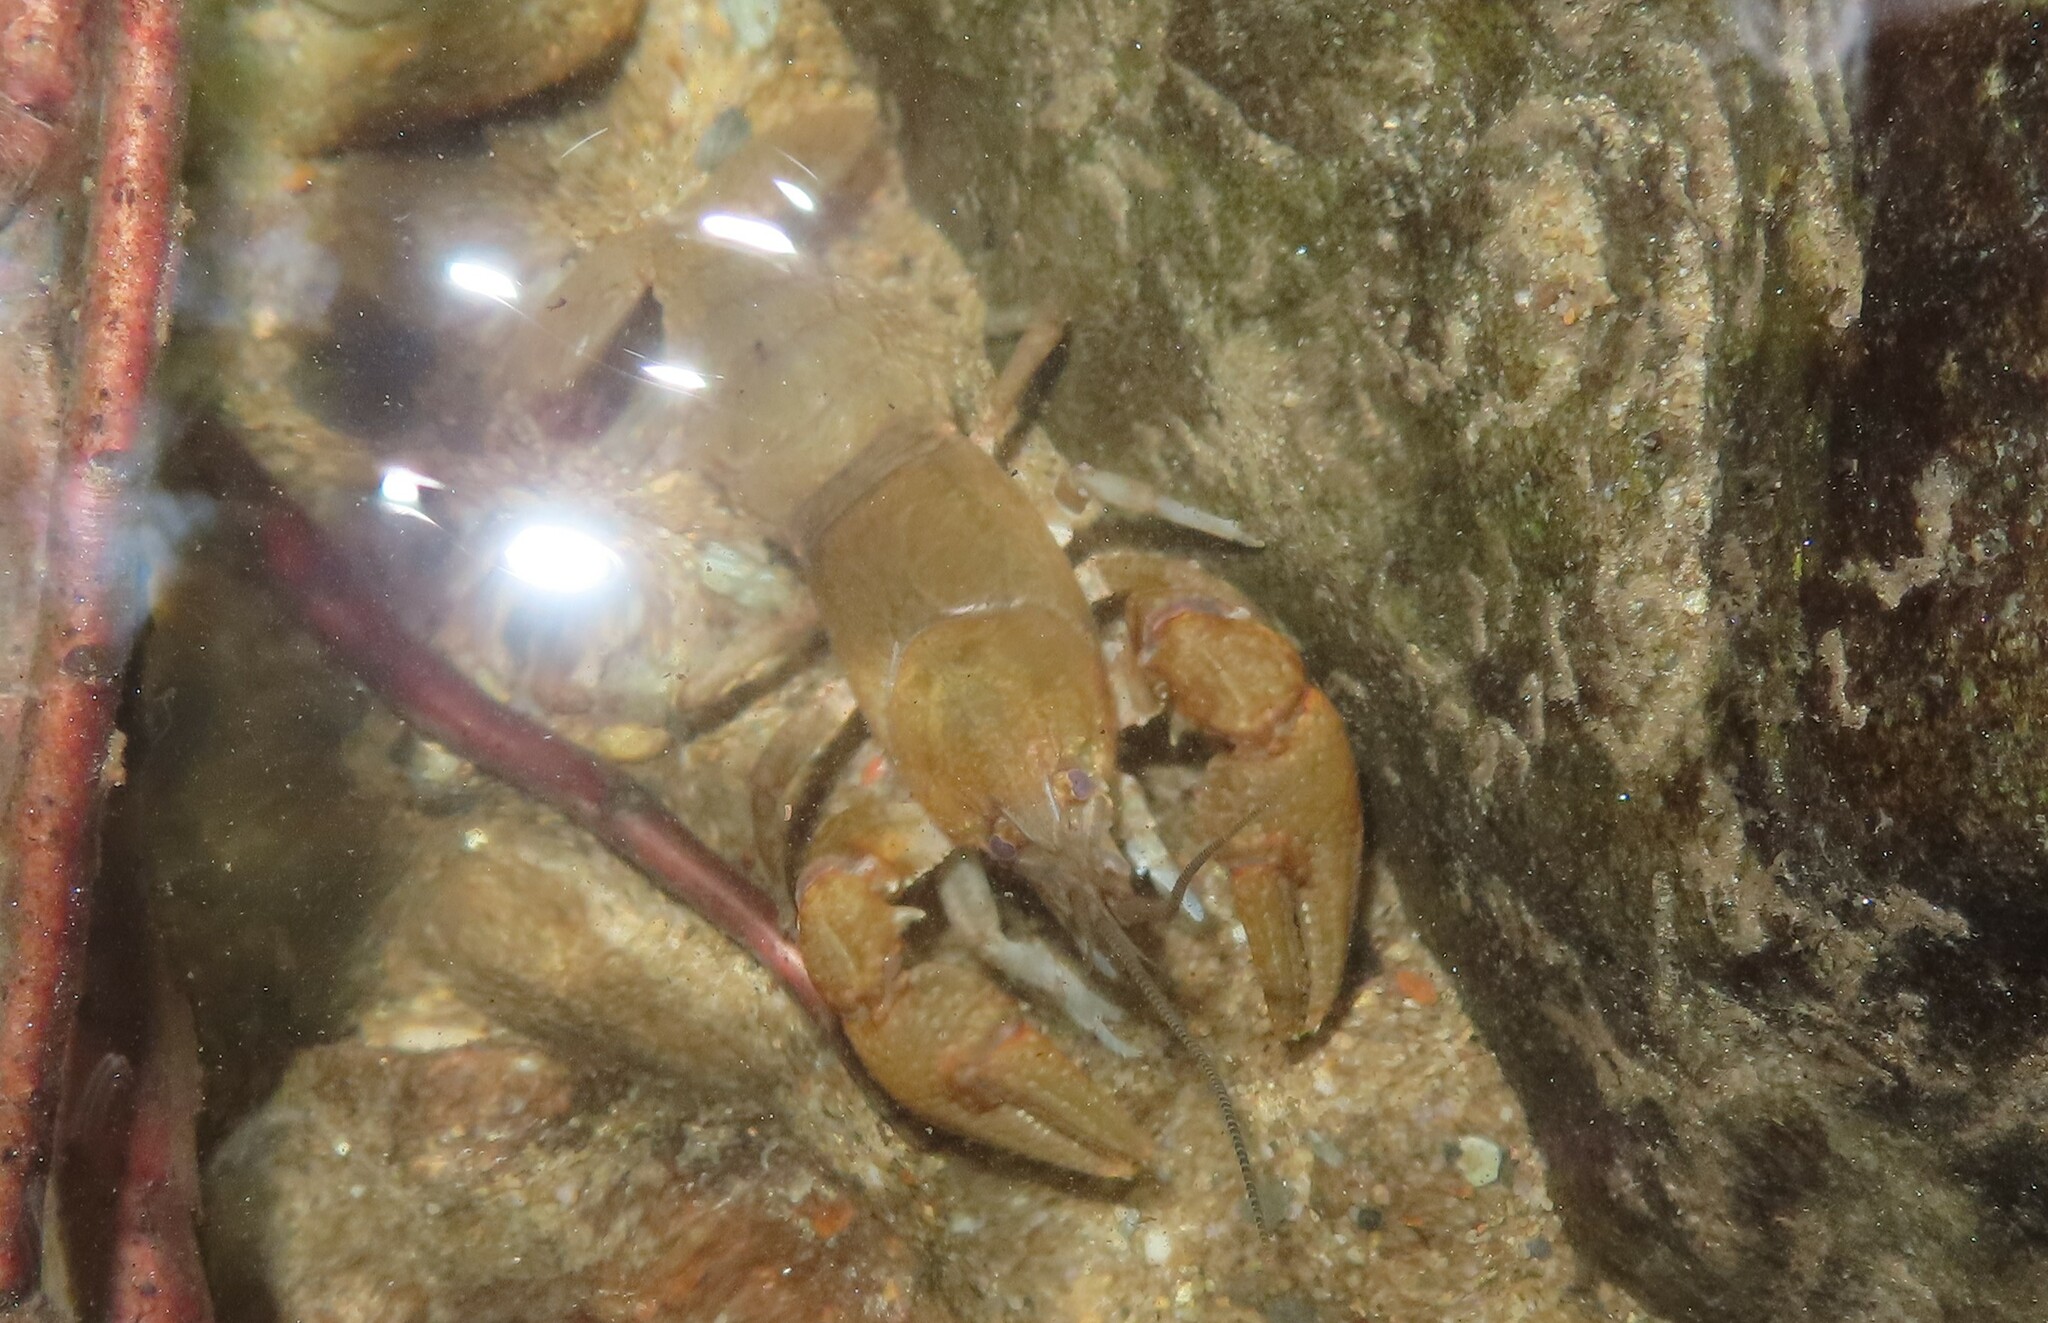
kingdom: Animalia
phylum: Arthropoda
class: Malacostraca
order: Decapoda
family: Cambaridae
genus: Cambarus
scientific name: Cambarus bartonii
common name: Appalachian brook crayfish
